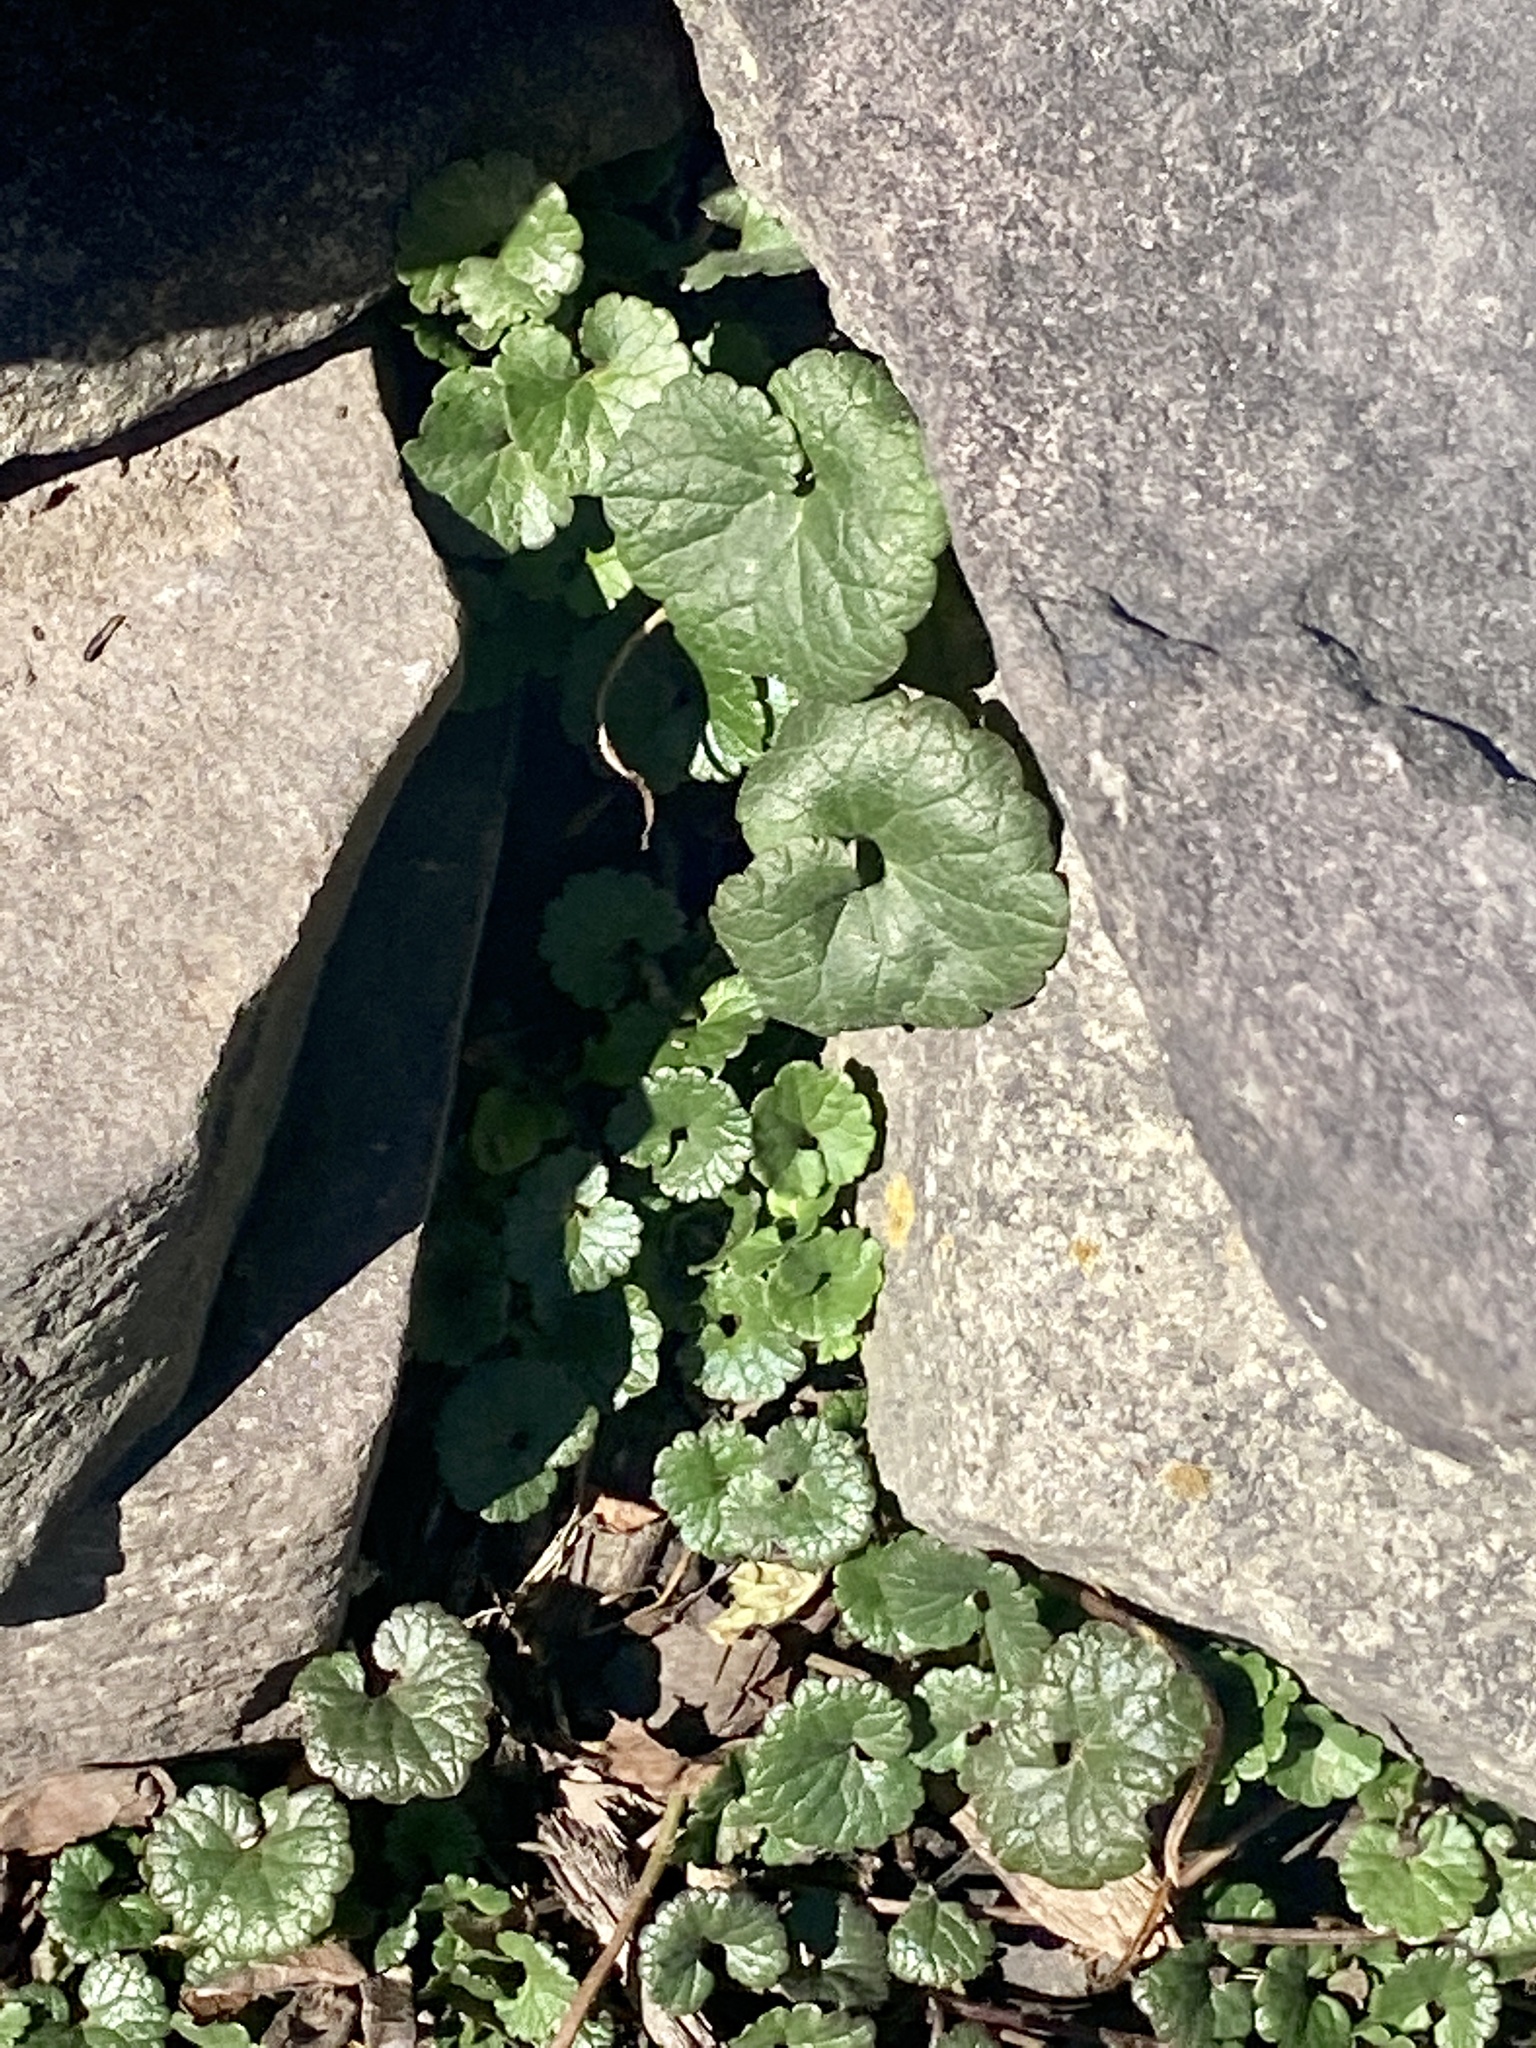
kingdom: Plantae
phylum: Tracheophyta
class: Magnoliopsida
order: Lamiales
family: Lamiaceae
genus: Glechoma
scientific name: Glechoma hederacea
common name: Ground ivy
